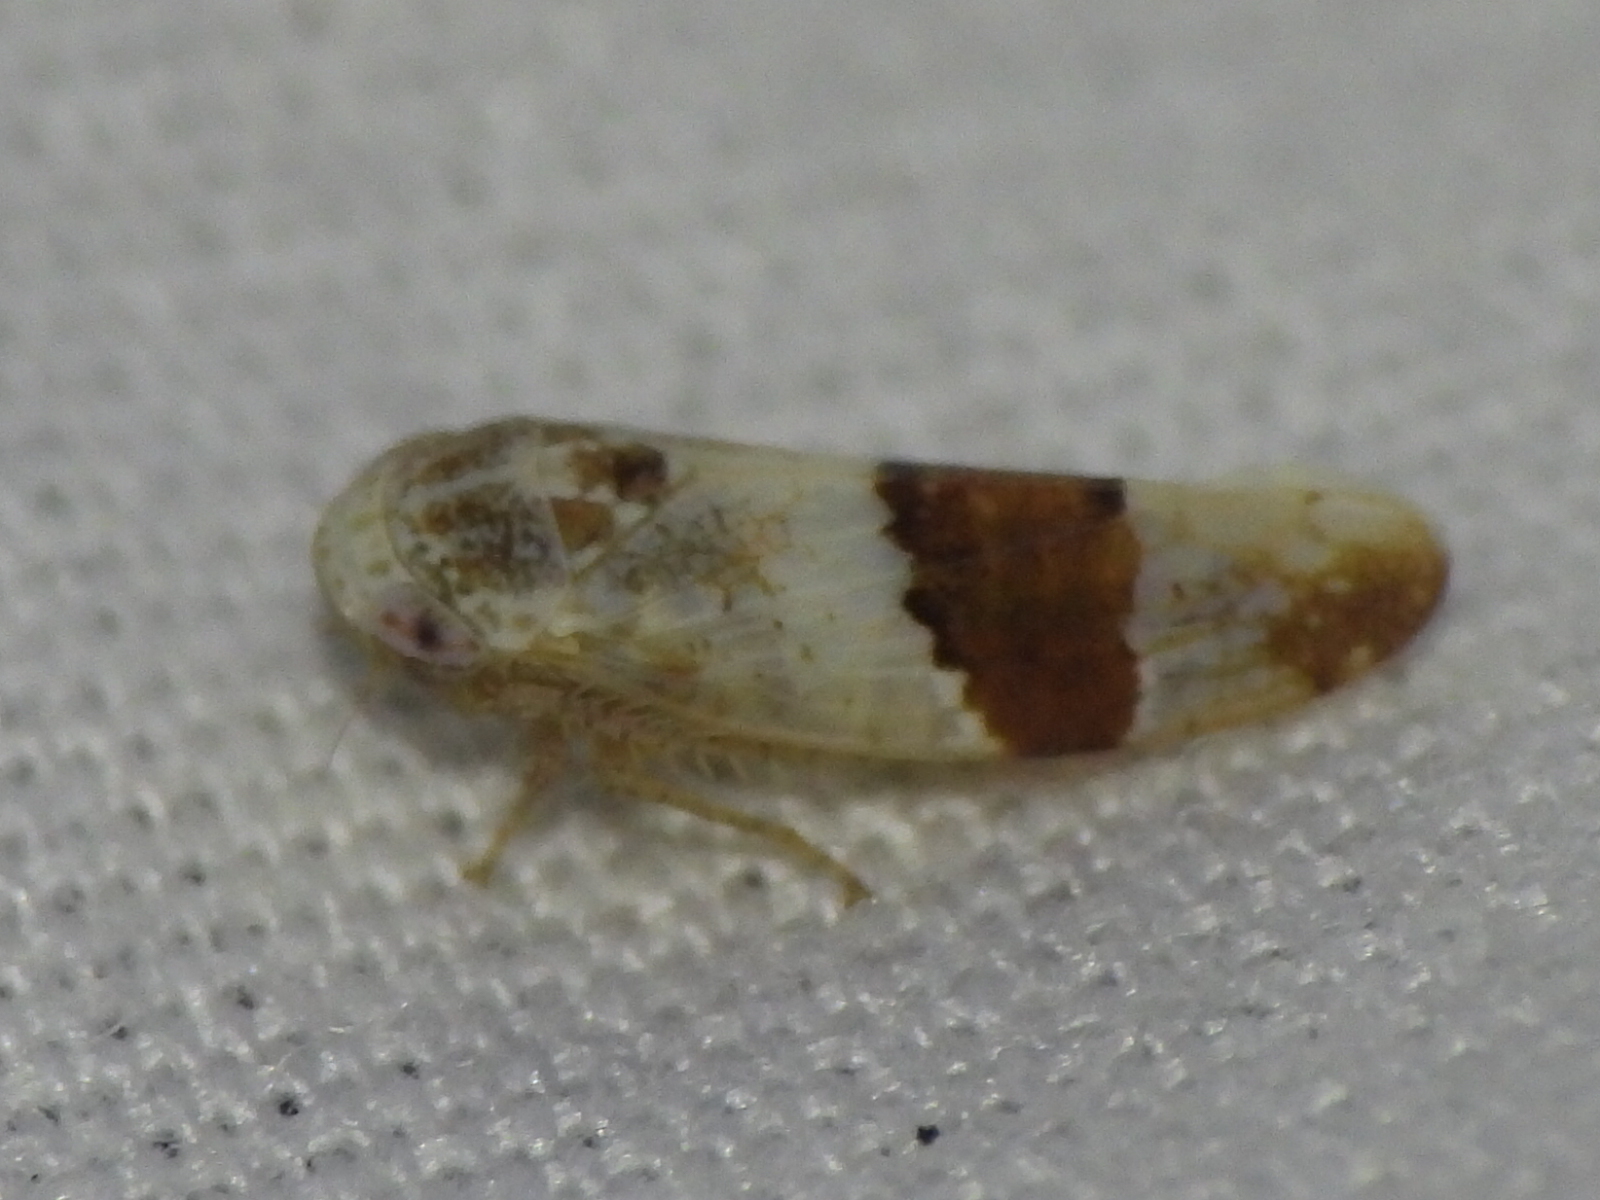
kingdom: Animalia
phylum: Arthropoda
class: Insecta
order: Hemiptera
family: Cicadellidae
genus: Norvellina
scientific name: Norvellina seminuda
